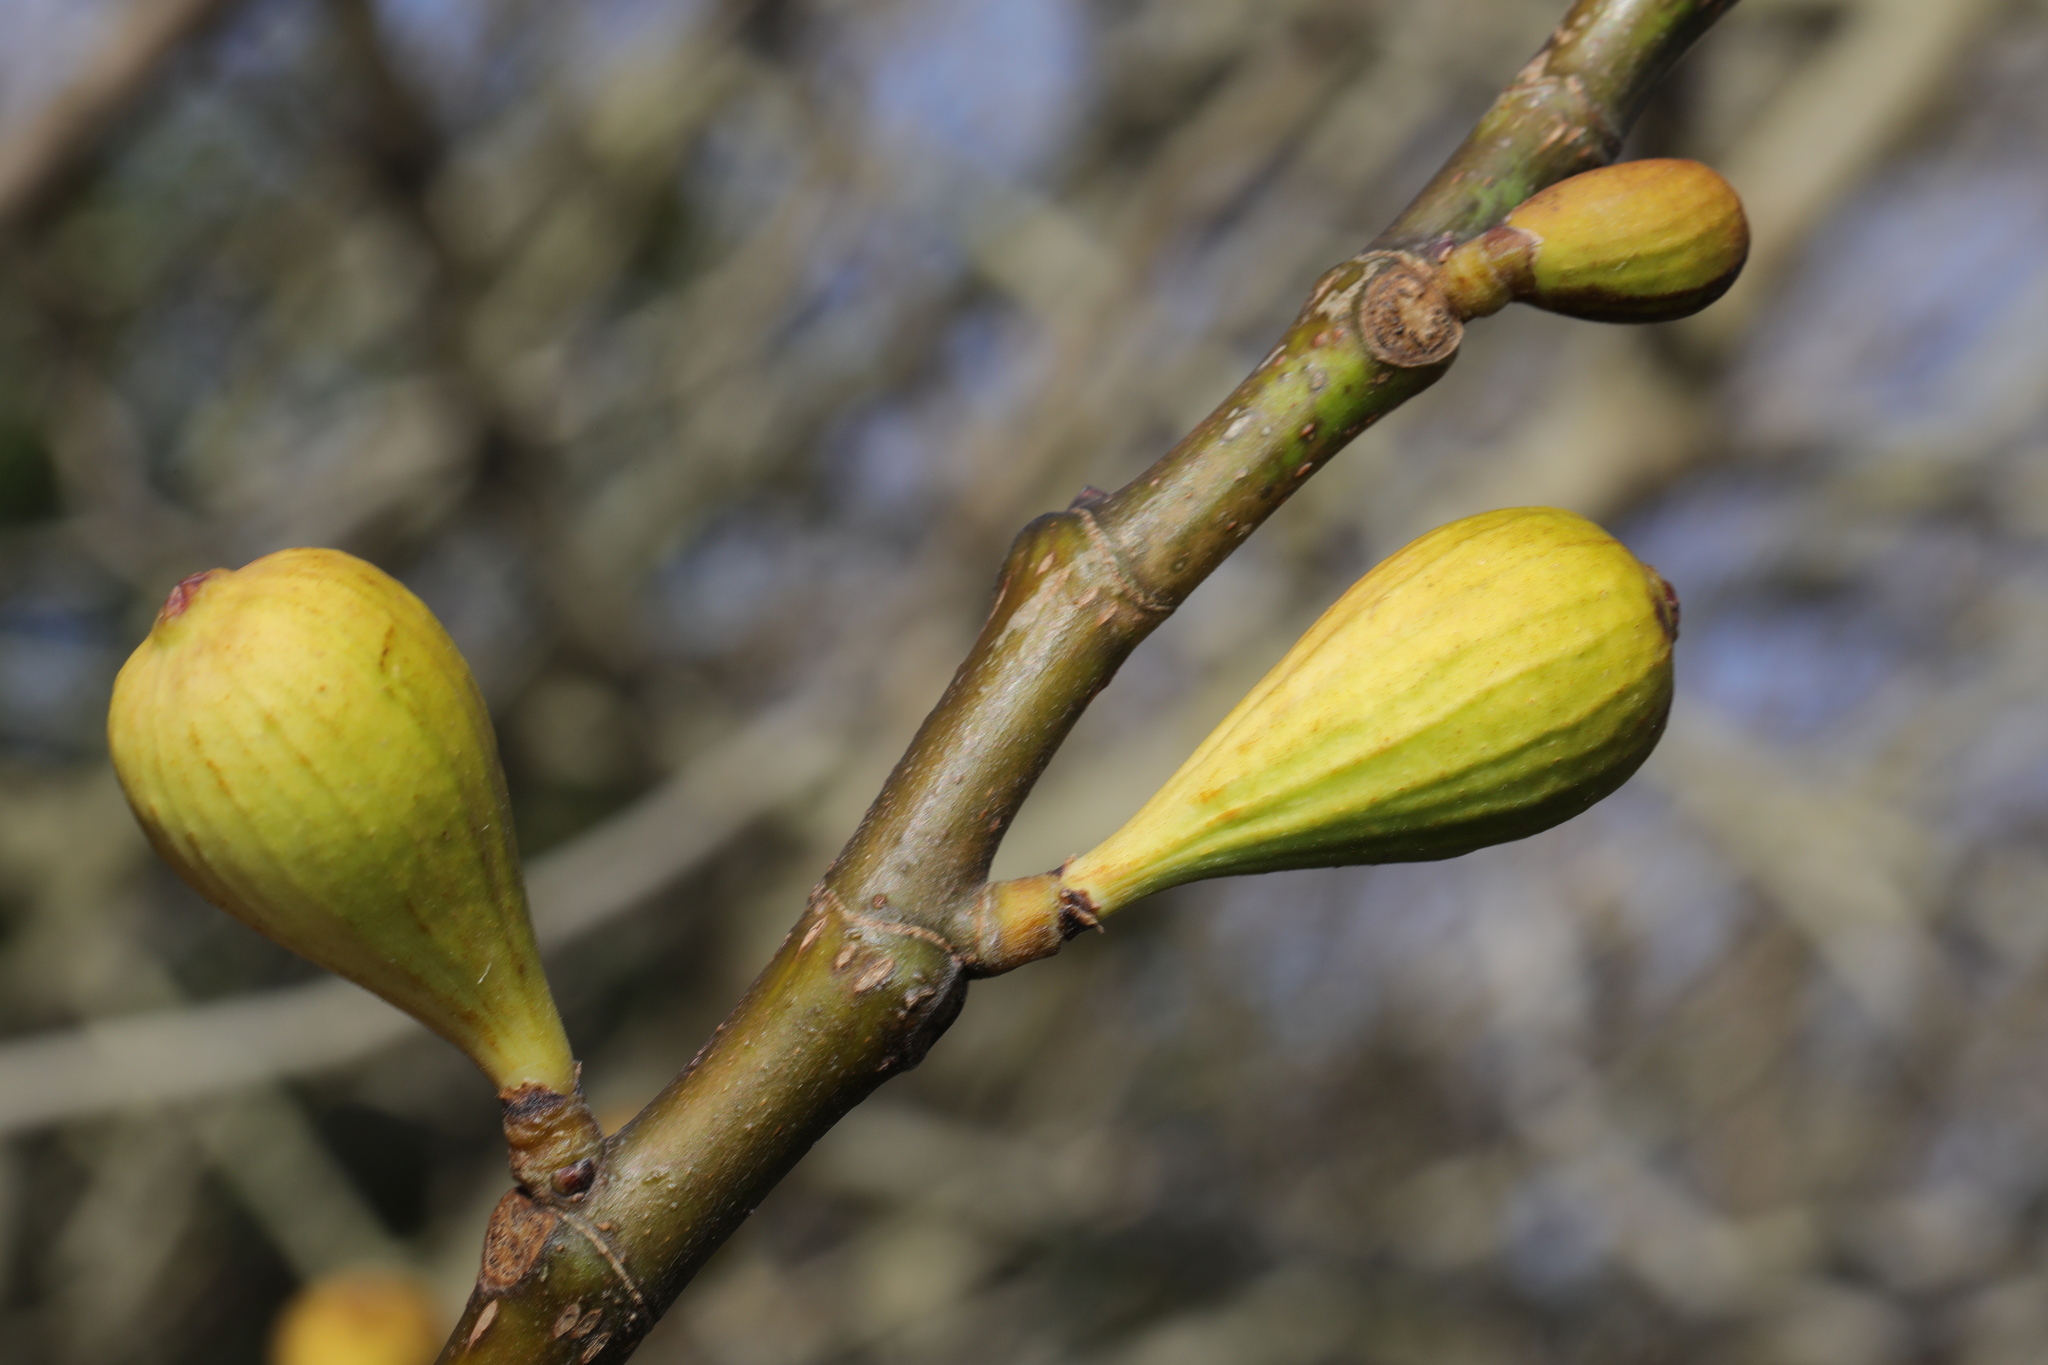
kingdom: Plantae
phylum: Tracheophyta
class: Magnoliopsida
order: Rosales
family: Moraceae
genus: Ficus
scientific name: Ficus carica
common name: Fig
